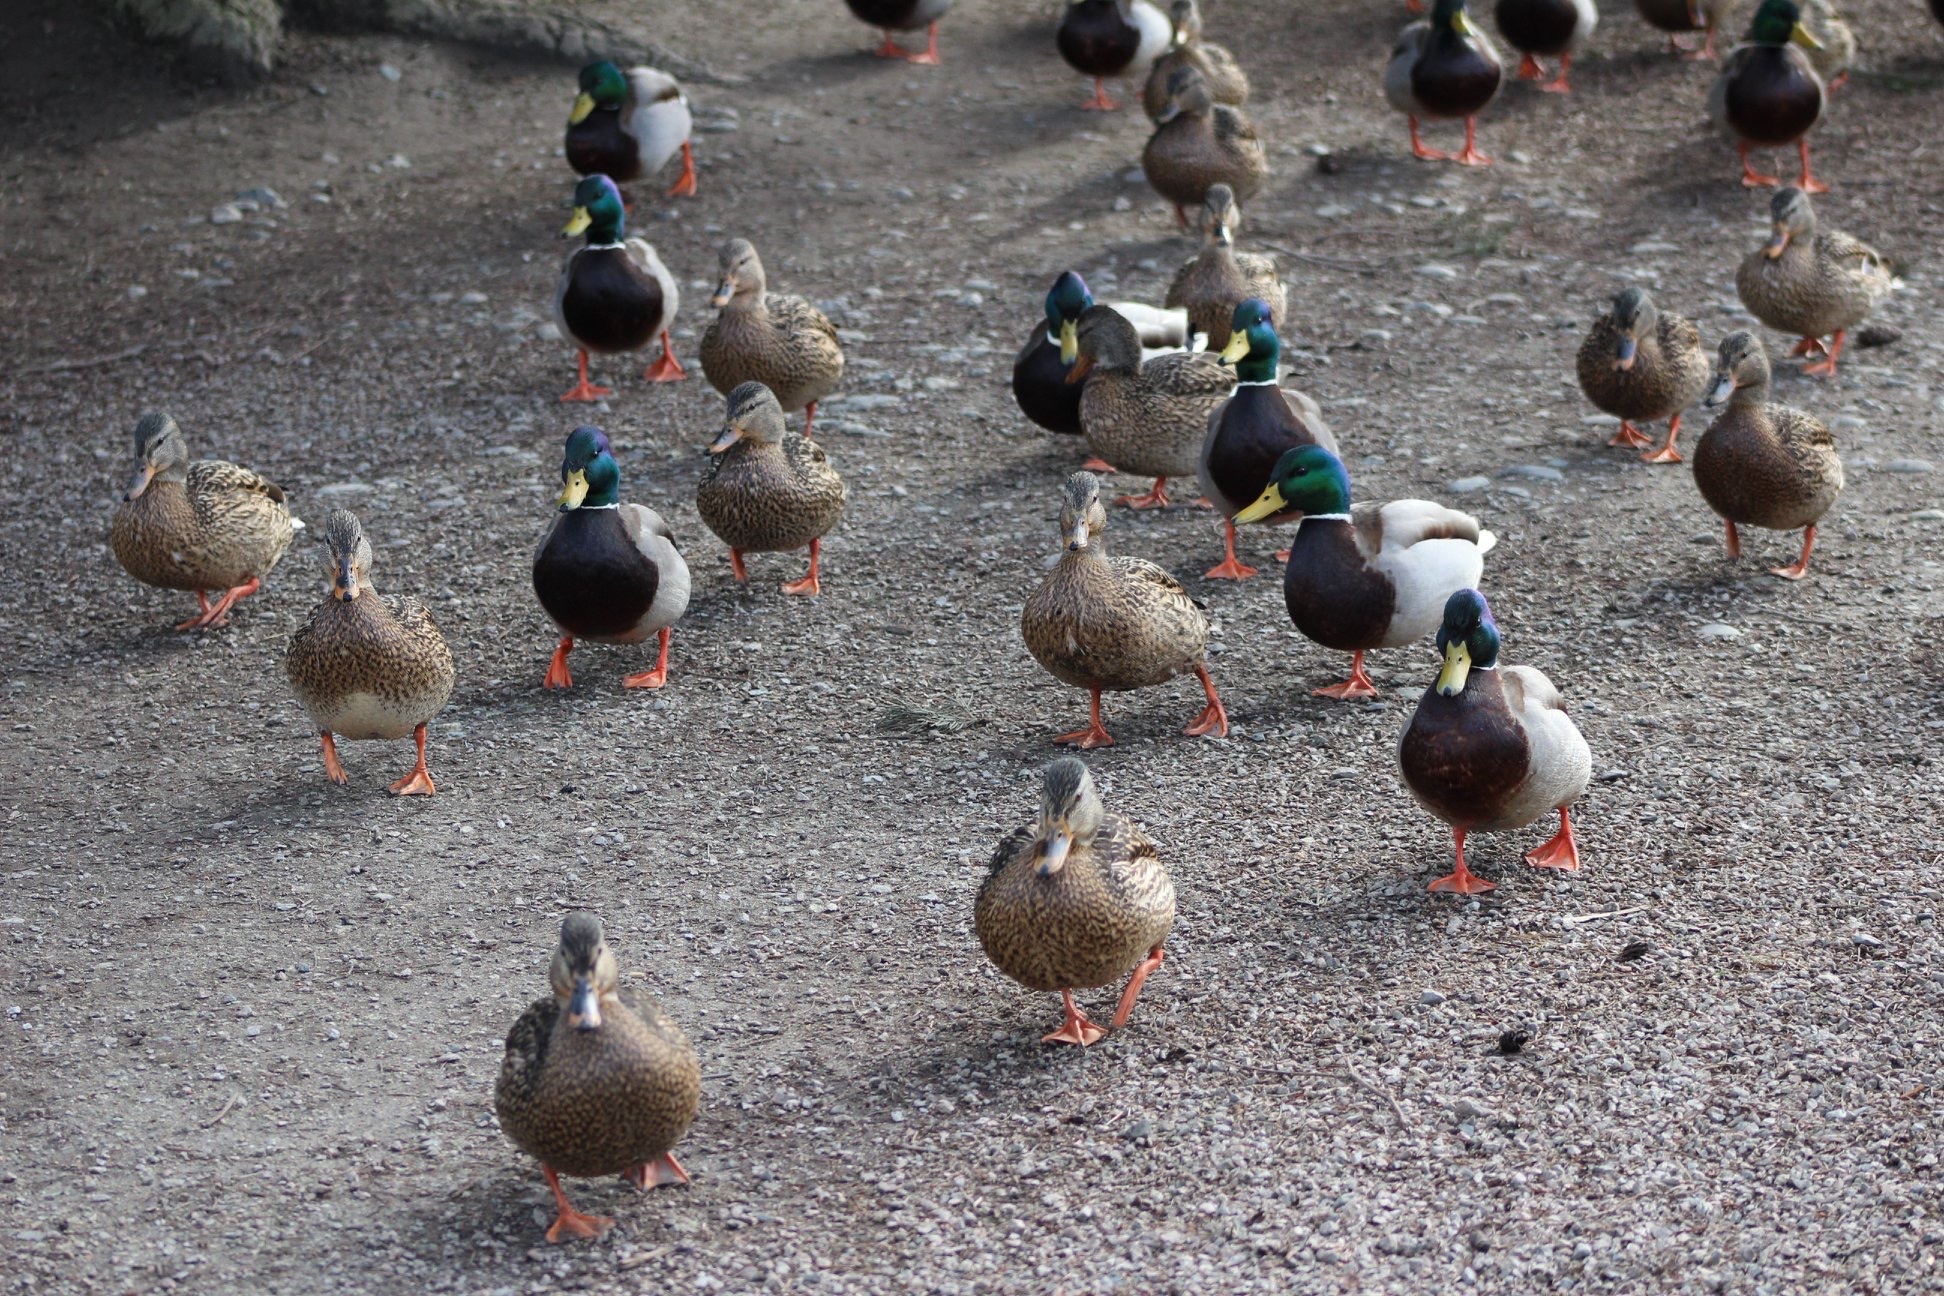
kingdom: Animalia
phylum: Chordata
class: Aves
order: Anseriformes
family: Anatidae
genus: Anas
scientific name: Anas platyrhynchos
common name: Mallard
